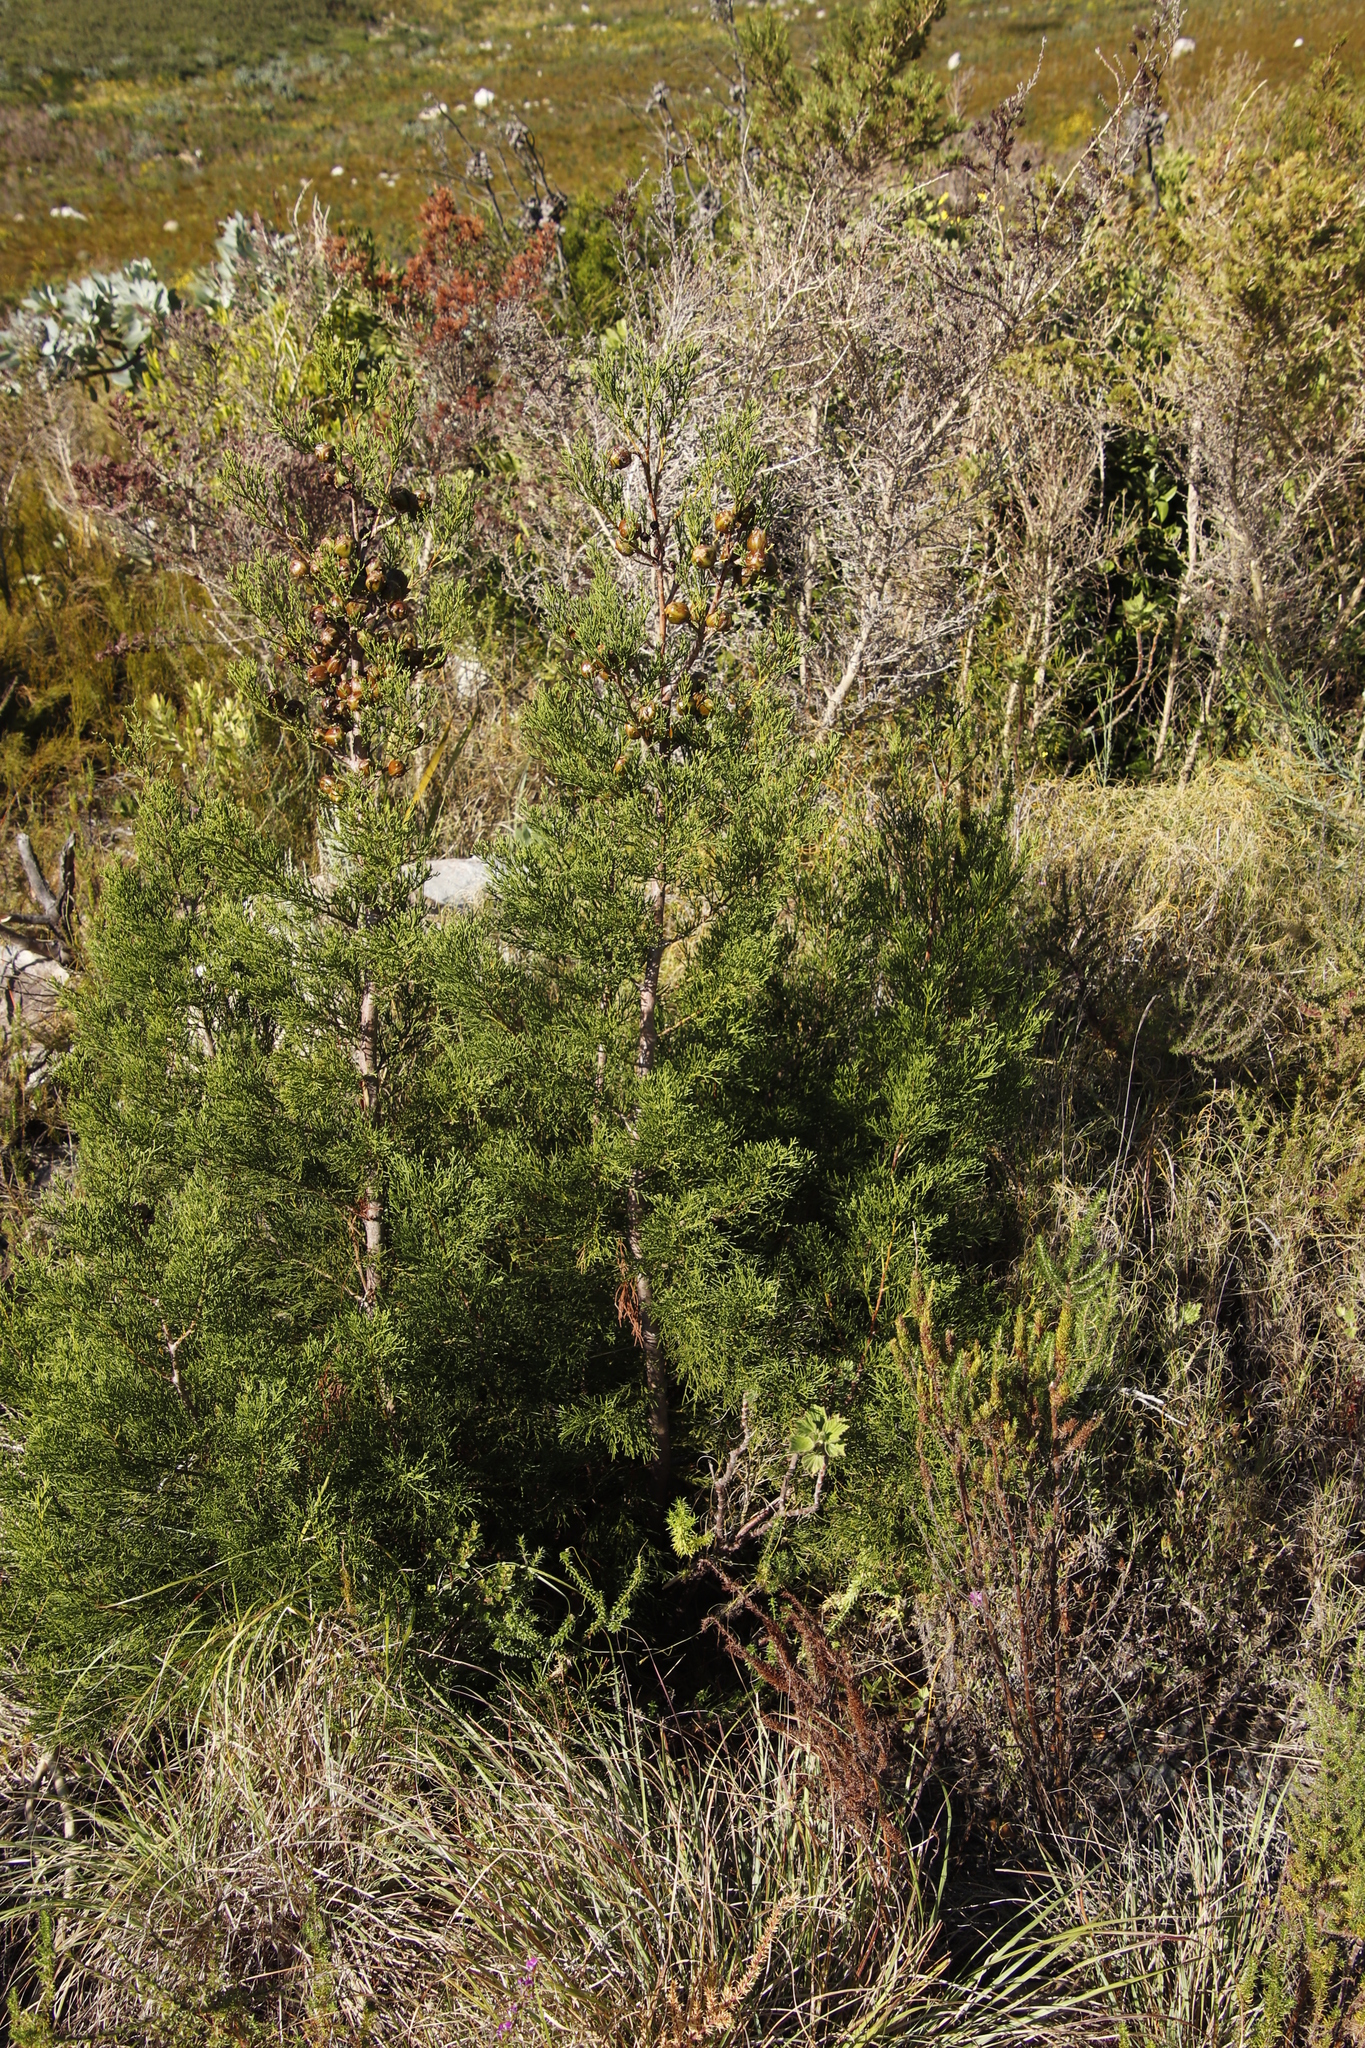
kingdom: Plantae
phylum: Tracheophyta
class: Pinopsida
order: Pinales
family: Cupressaceae
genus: Widdringtonia
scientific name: Widdringtonia nodiflora
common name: Cape cypress
